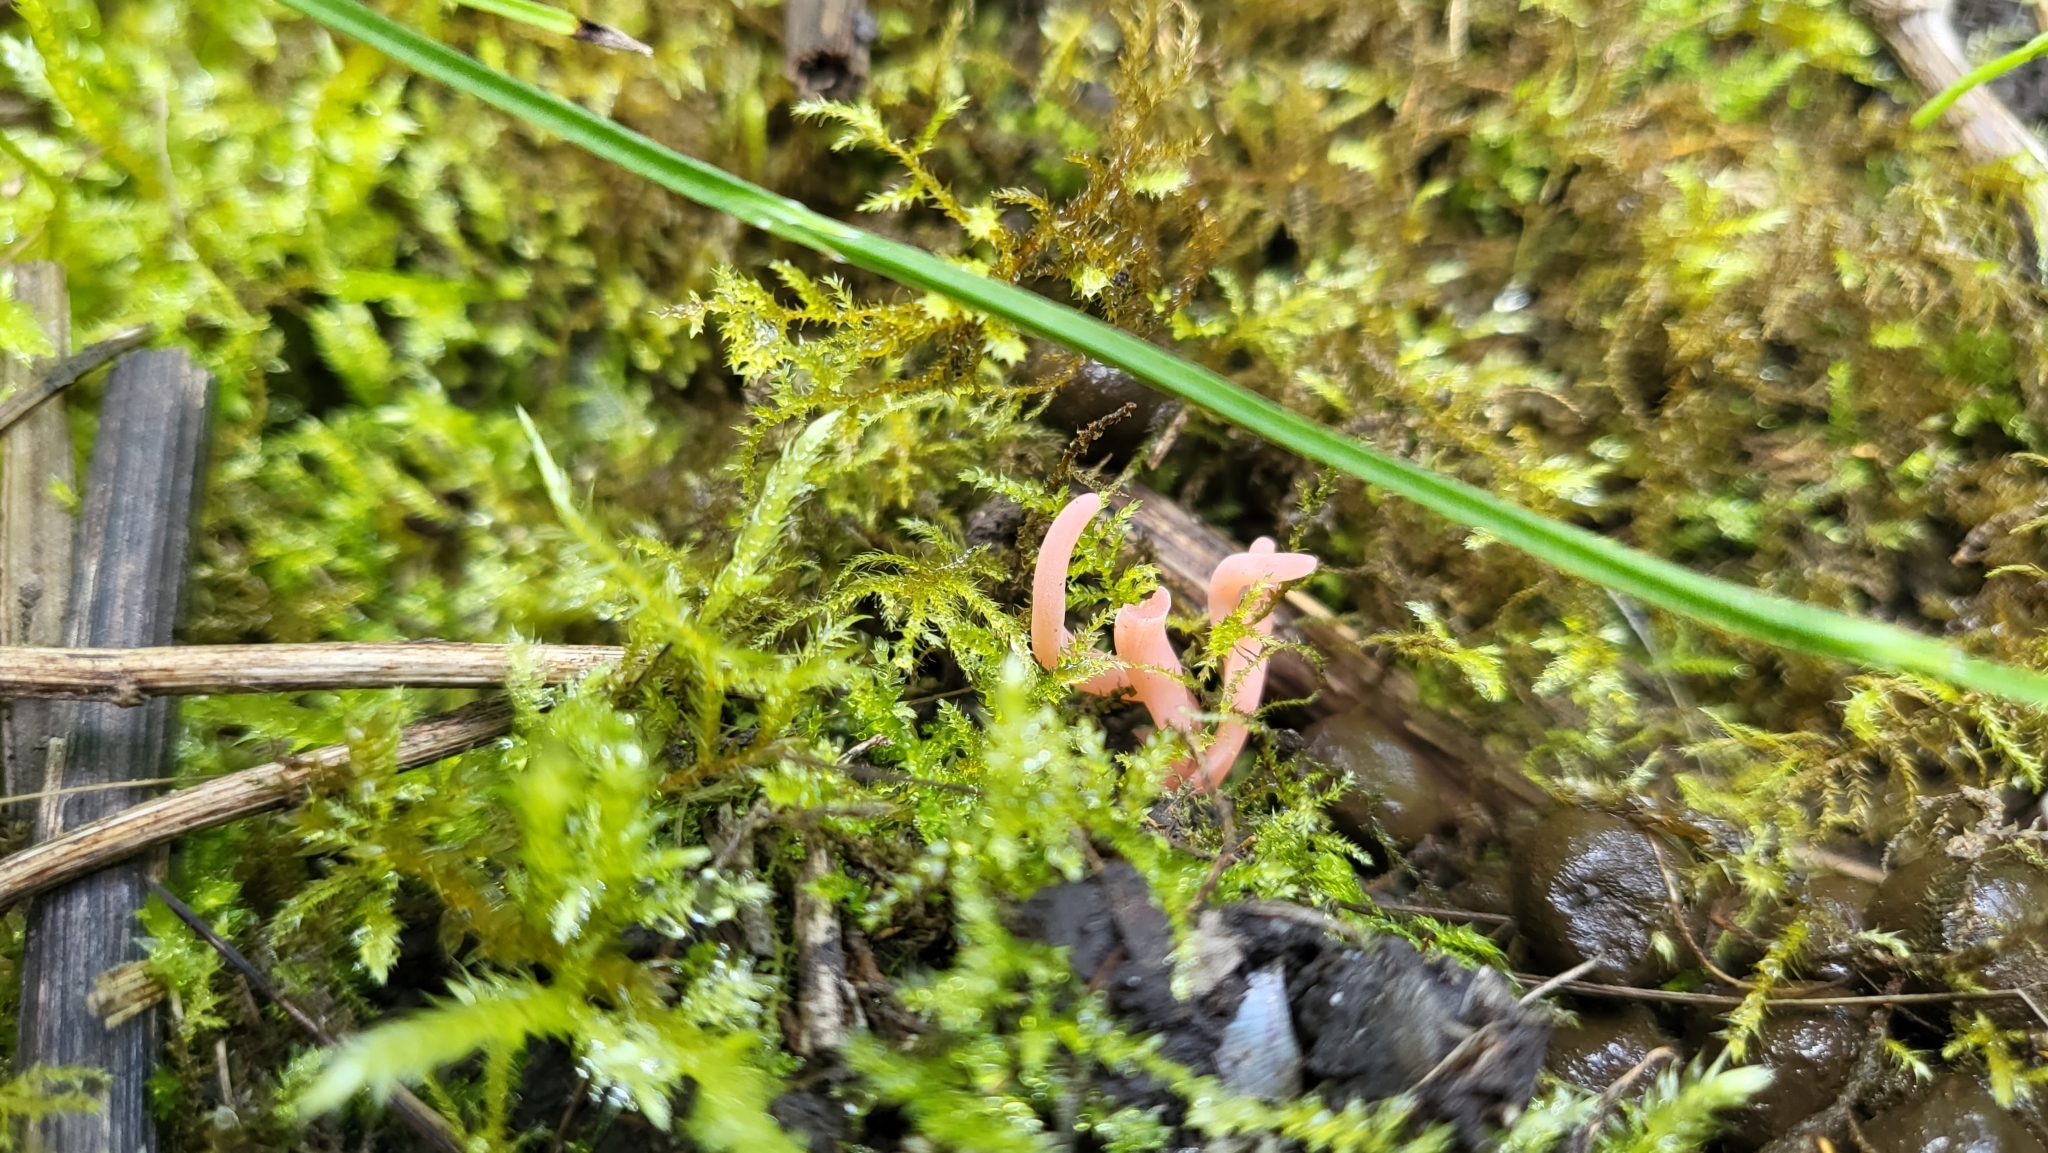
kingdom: Fungi
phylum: Basidiomycota
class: Agaricomycetes
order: Agaricales
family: Clavariaceae
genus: Clavaria
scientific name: Clavaria incarnata
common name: Skinny club
